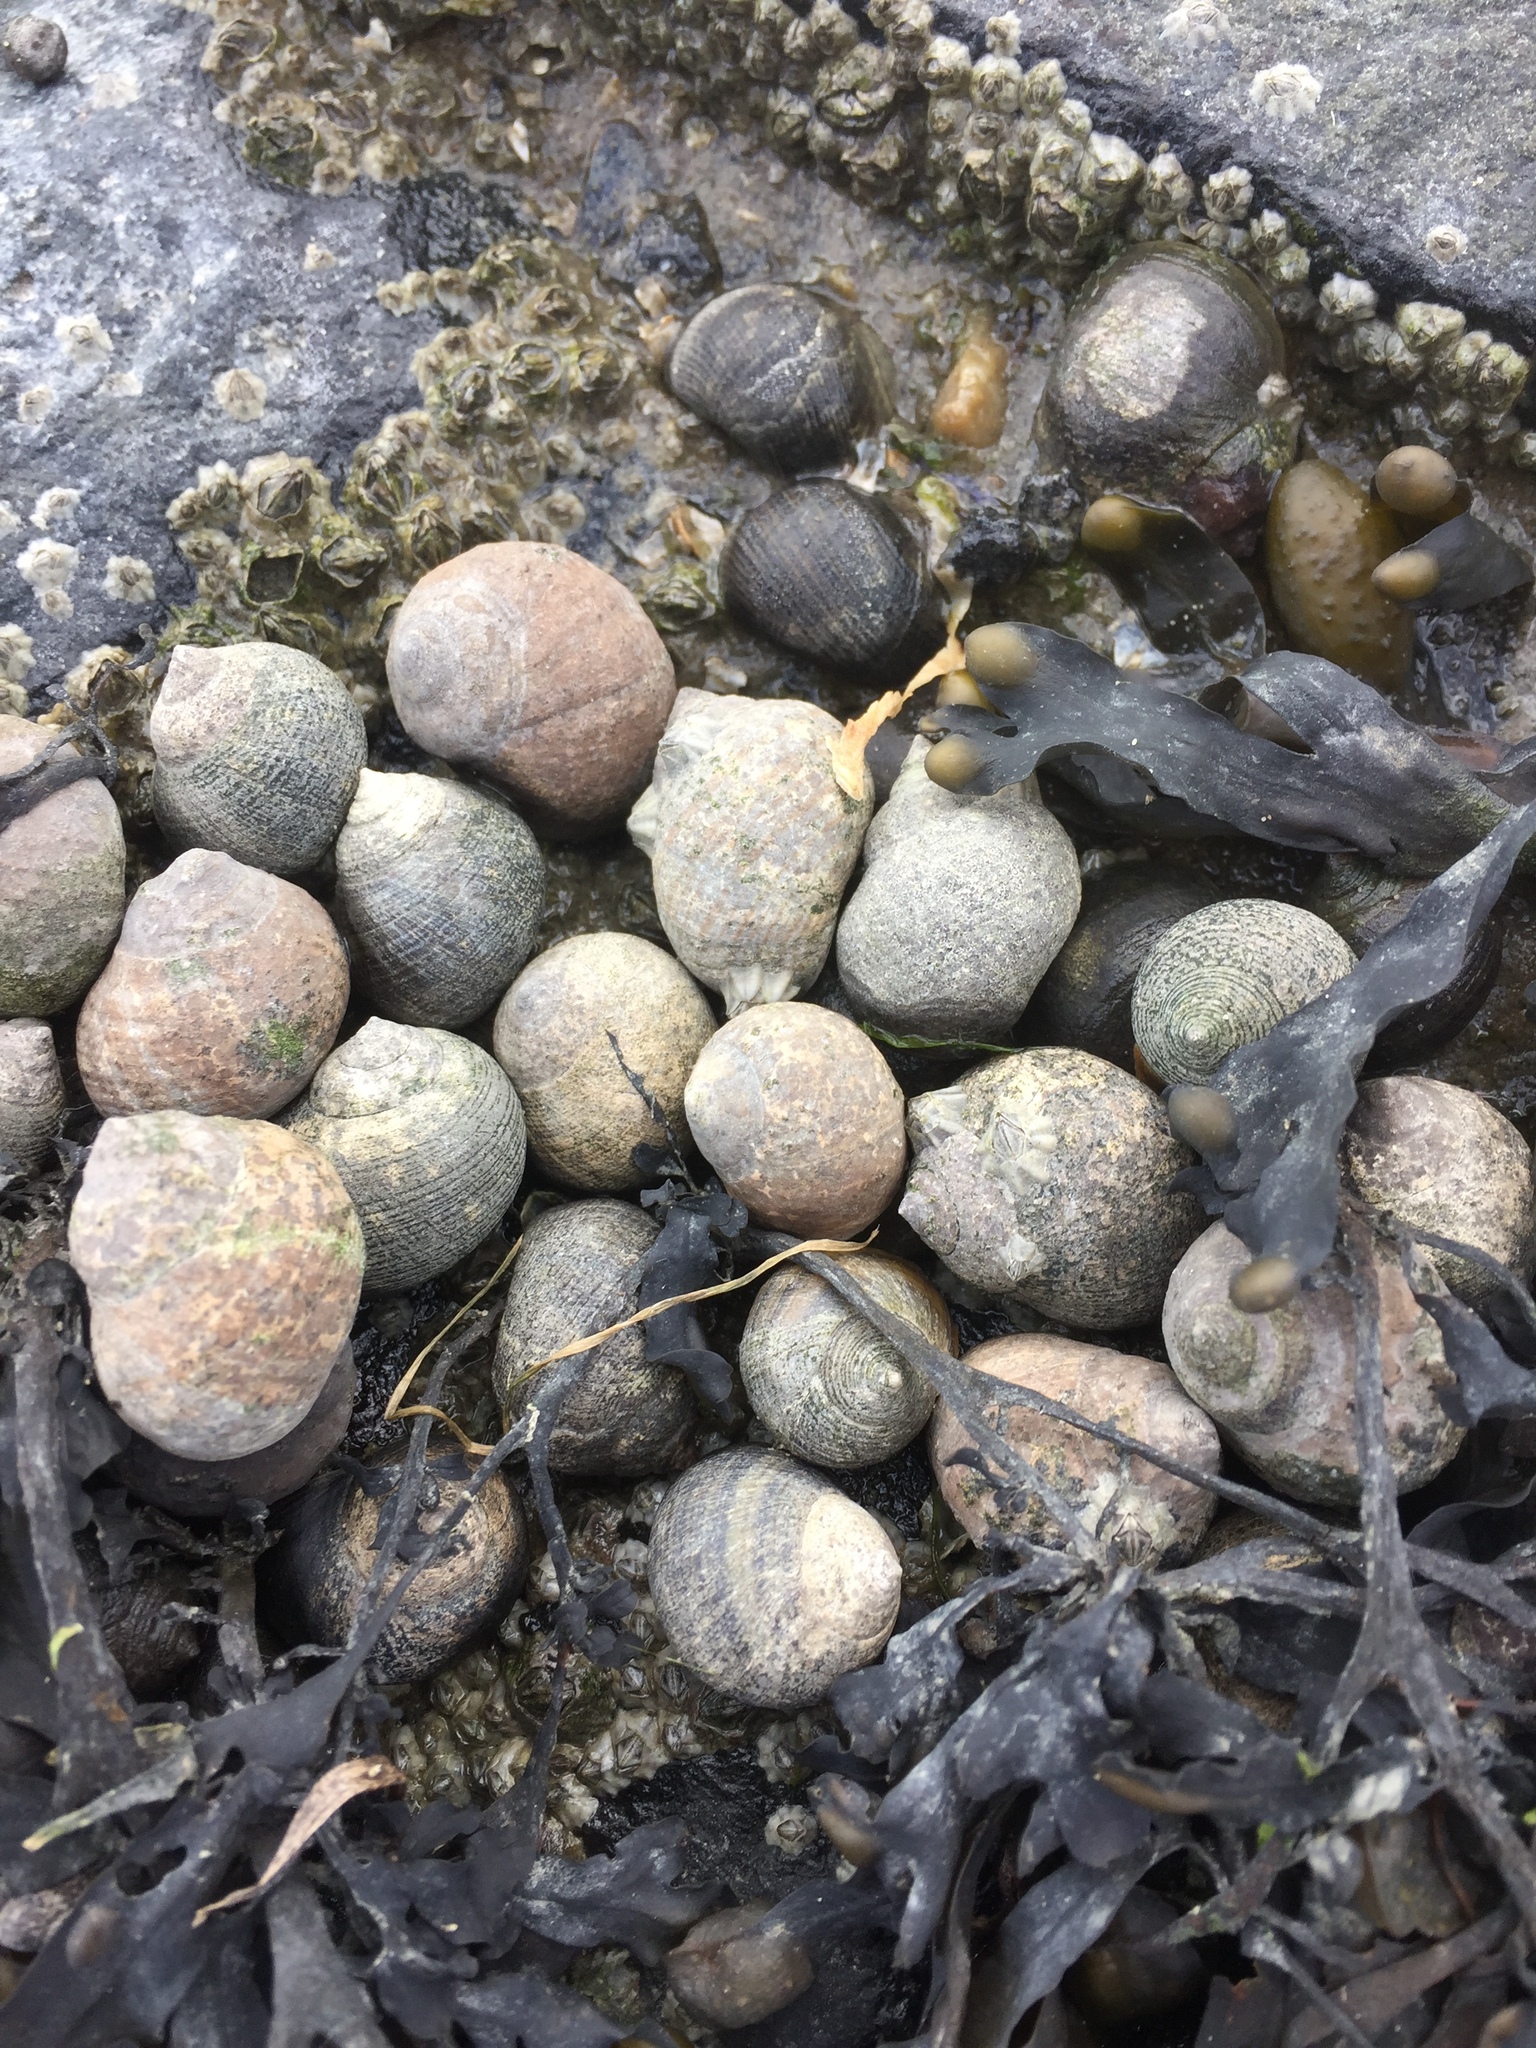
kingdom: Animalia
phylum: Mollusca
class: Gastropoda
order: Littorinimorpha
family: Littorinidae
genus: Littorina
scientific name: Littorina littorea
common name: Common periwinkle
